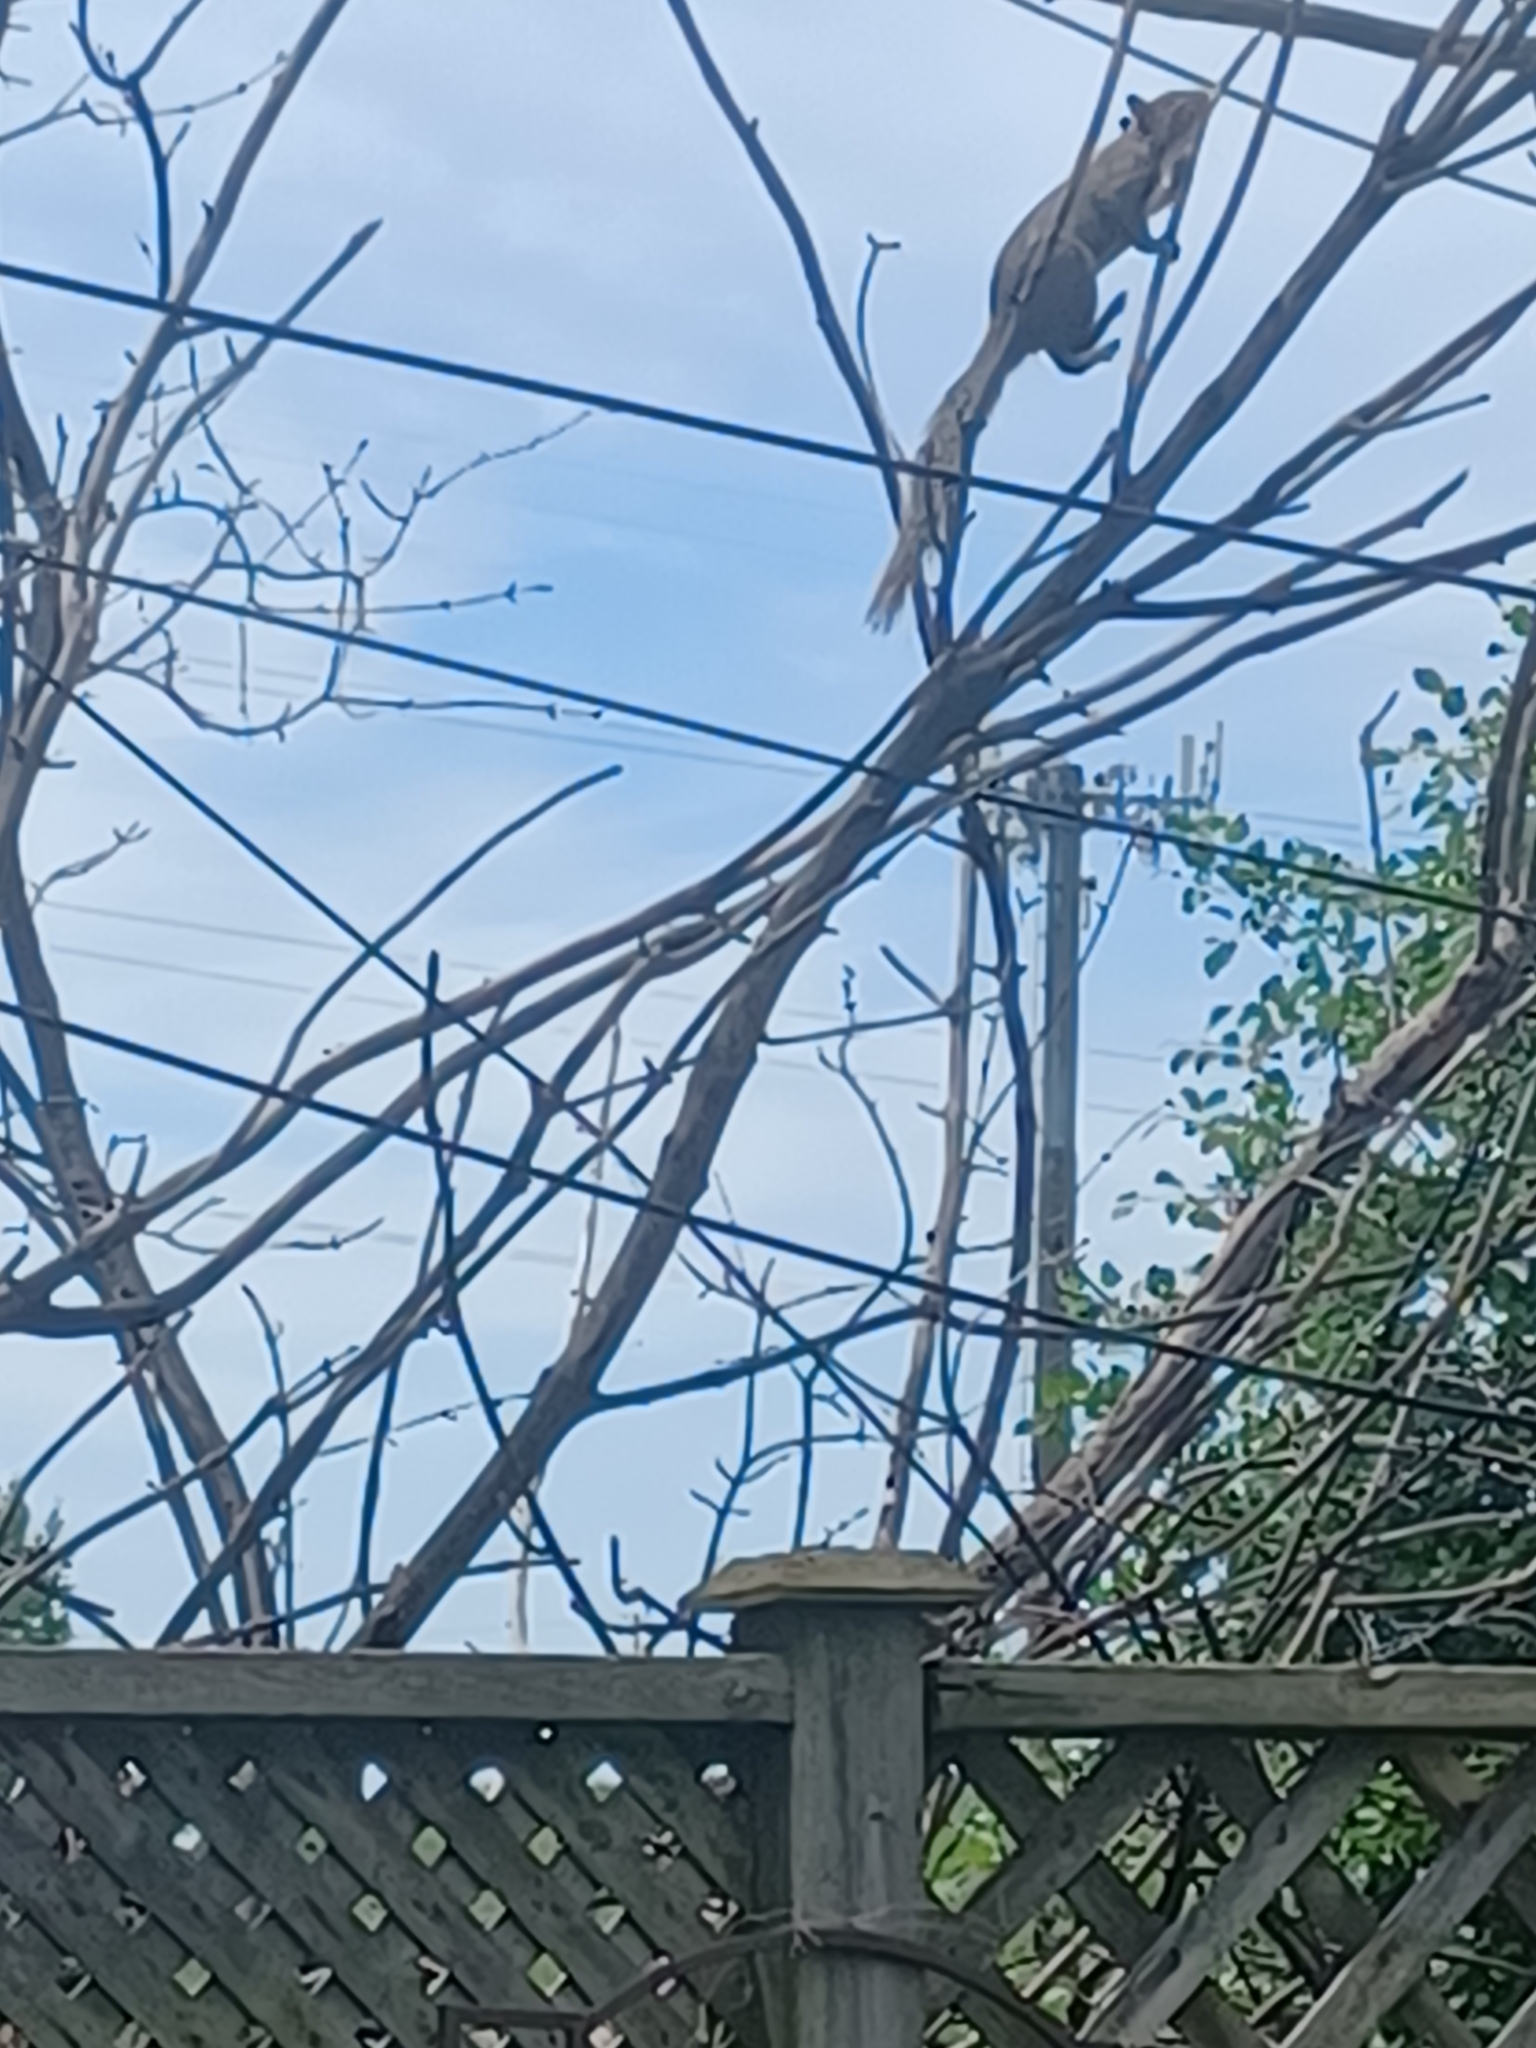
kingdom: Animalia
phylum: Chordata
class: Mammalia
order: Rodentia
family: Sciuridae
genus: Sciurus
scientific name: Sciurus carolinensis
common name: Eastern gray squirrel
